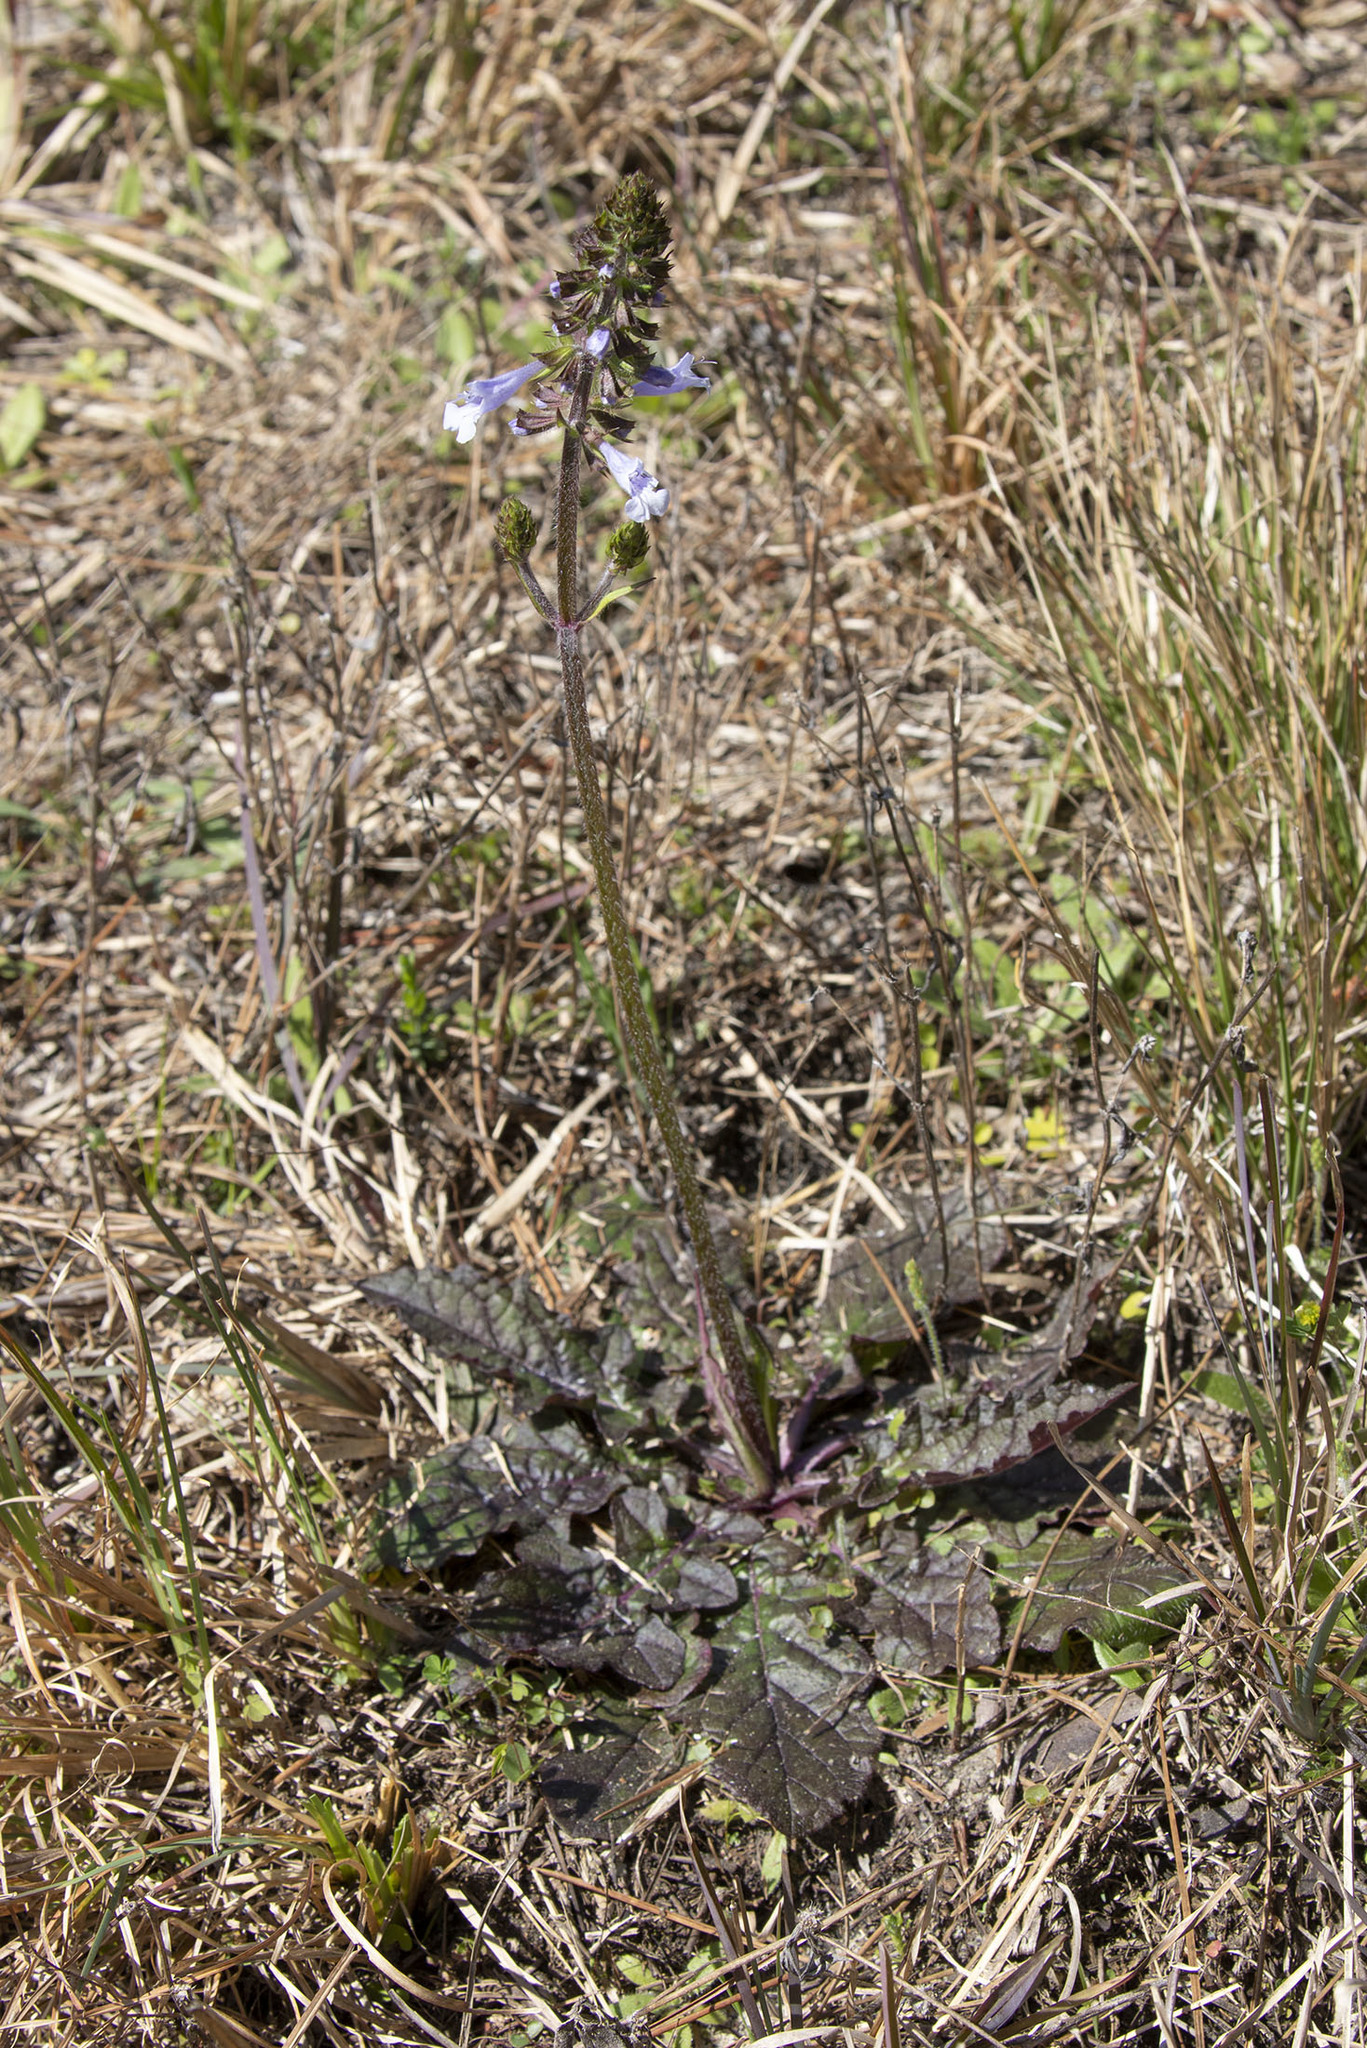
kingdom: Plantae
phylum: Tracheophyta
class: Magnoliopsida
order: Lamiales
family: Lamiaceae
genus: Salvia
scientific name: Salvia lyrata
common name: Cancerweed
